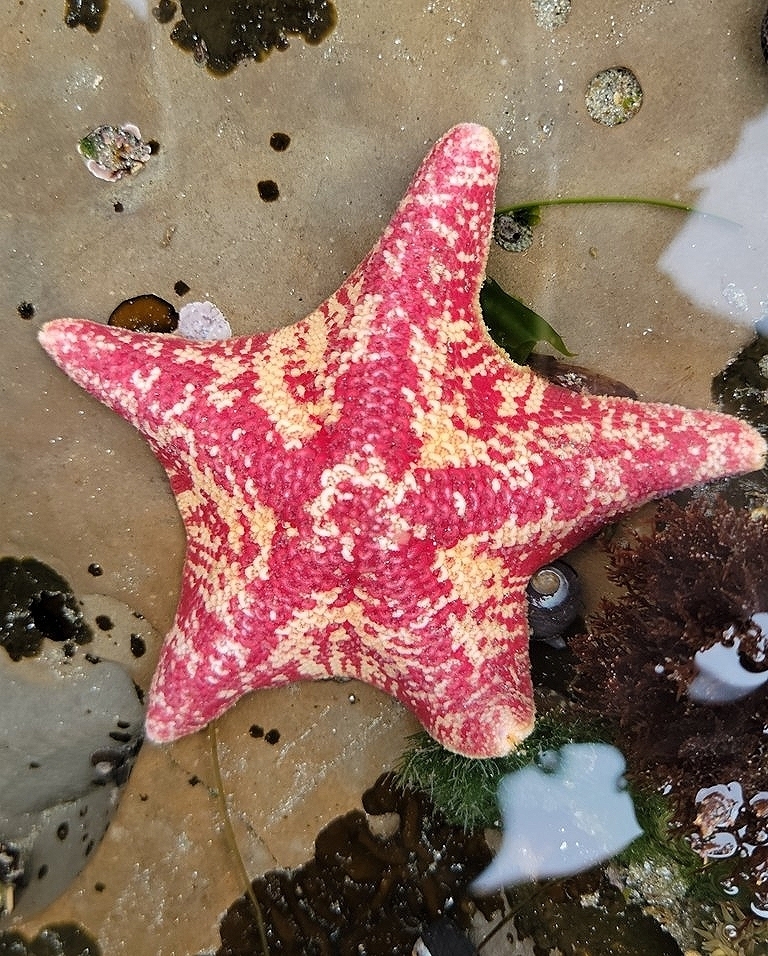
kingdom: Animalia
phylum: Echinodermata
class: Asteroidea
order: Valvatida
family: Asterinidae
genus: Patiria
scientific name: Patiria miniata
